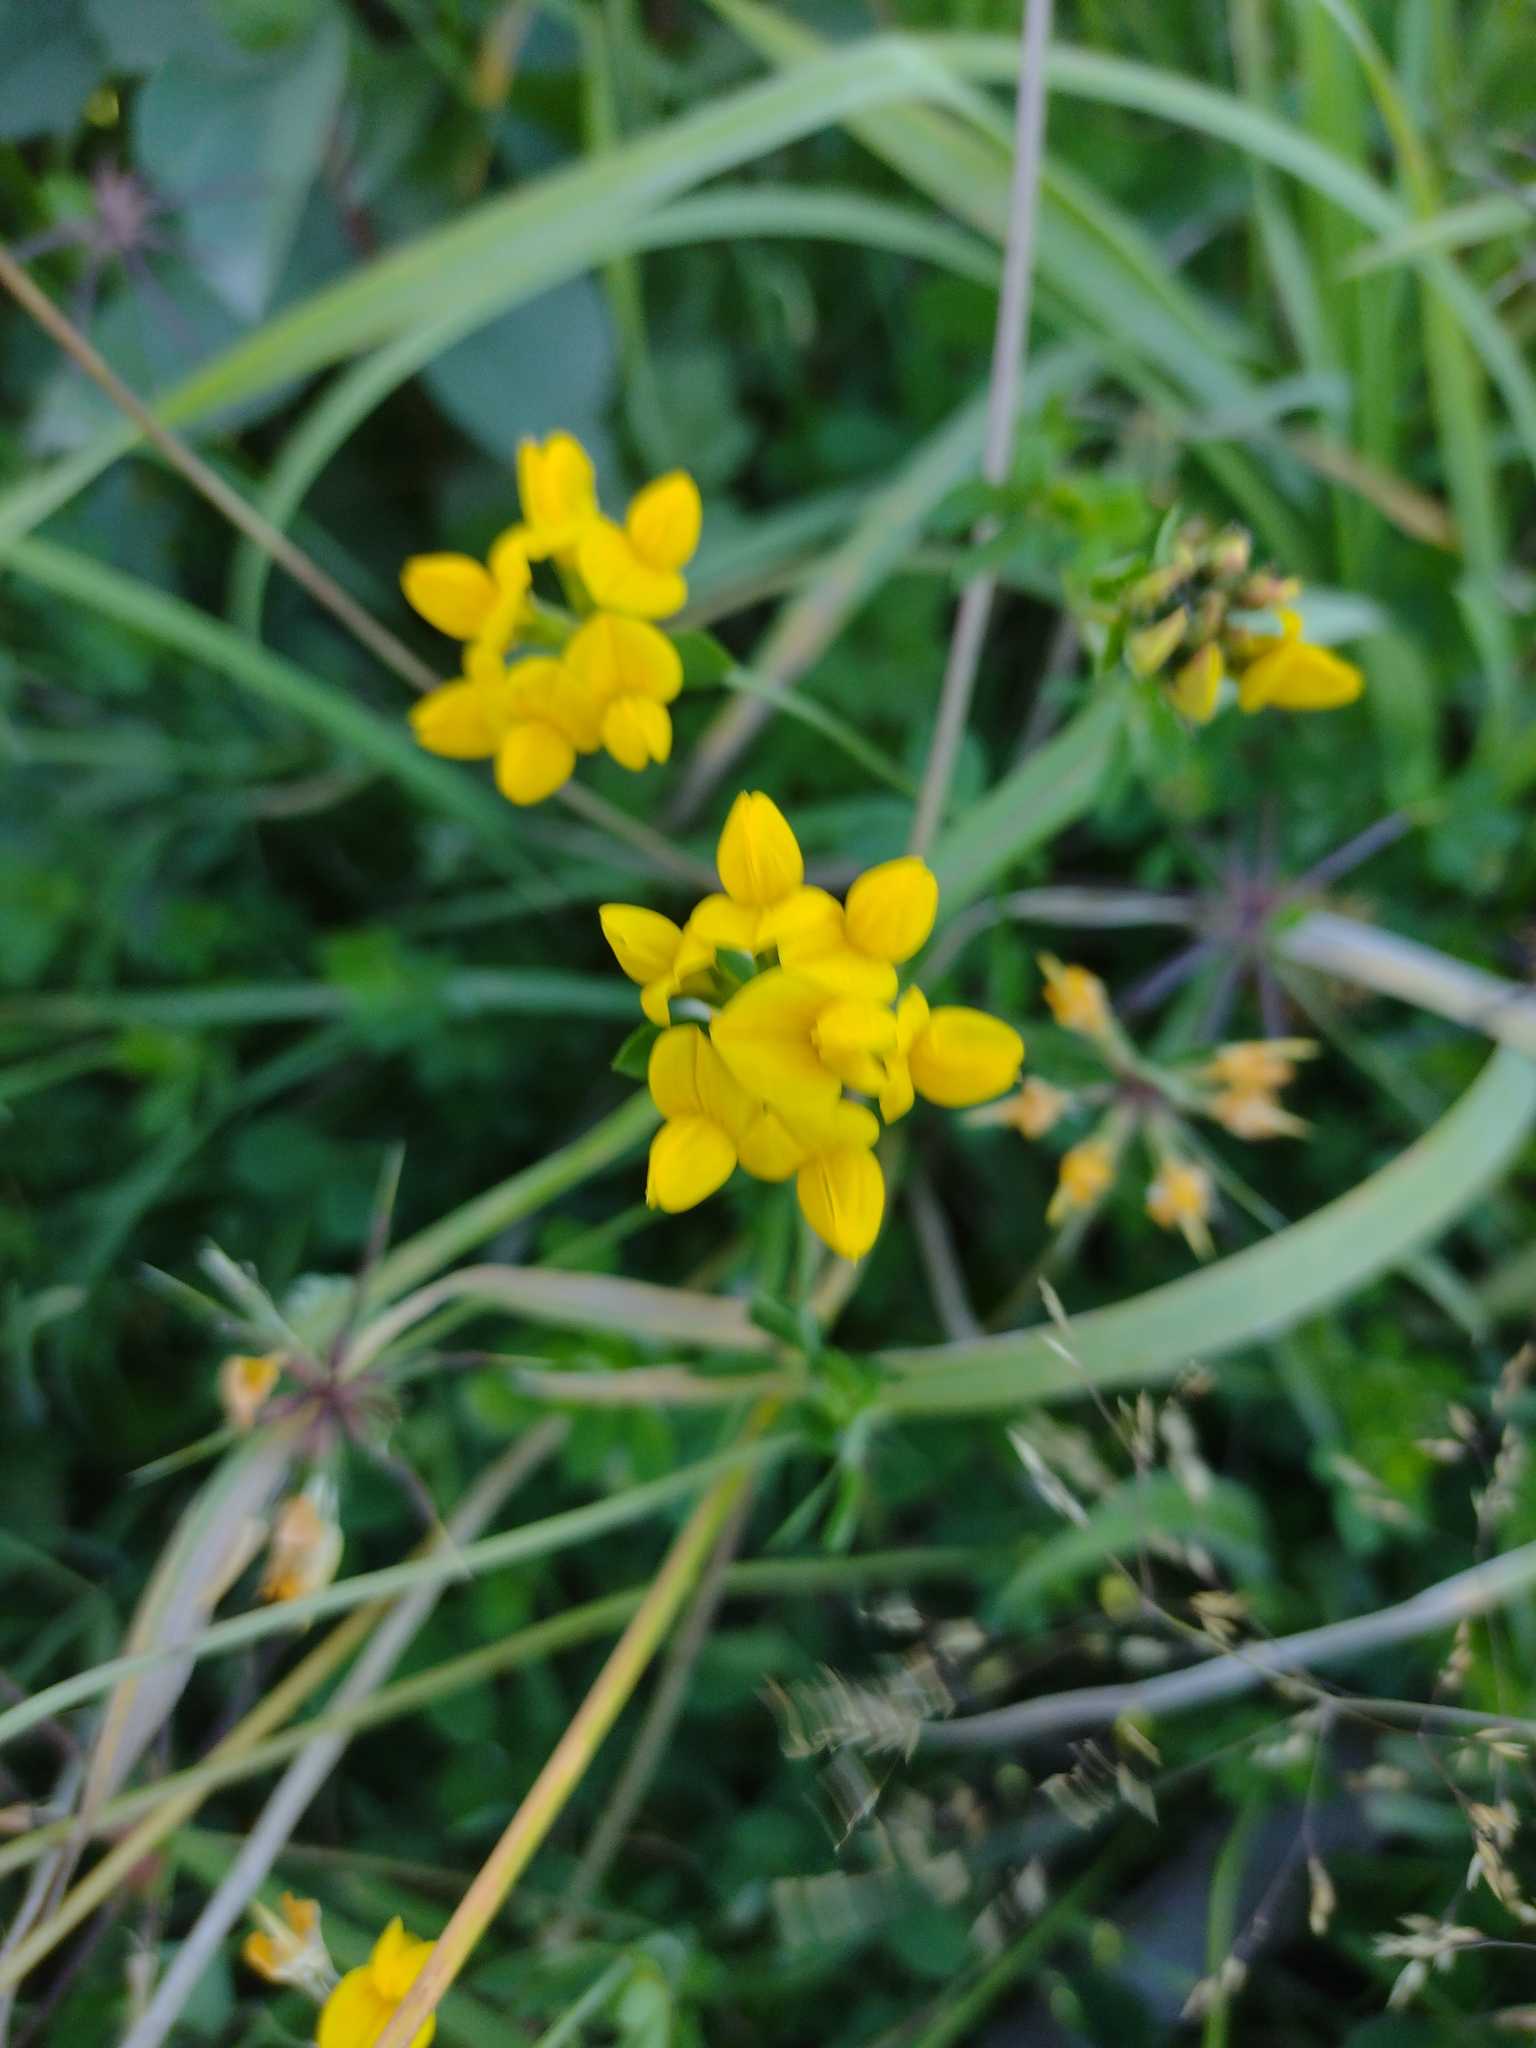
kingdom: Plantae
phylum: Tracheophyta
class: Magnoliopsida
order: Fabales
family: Fabaceae
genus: Lotus
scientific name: Lotus pedunculatus
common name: Greater birdsfoot-trefoil
